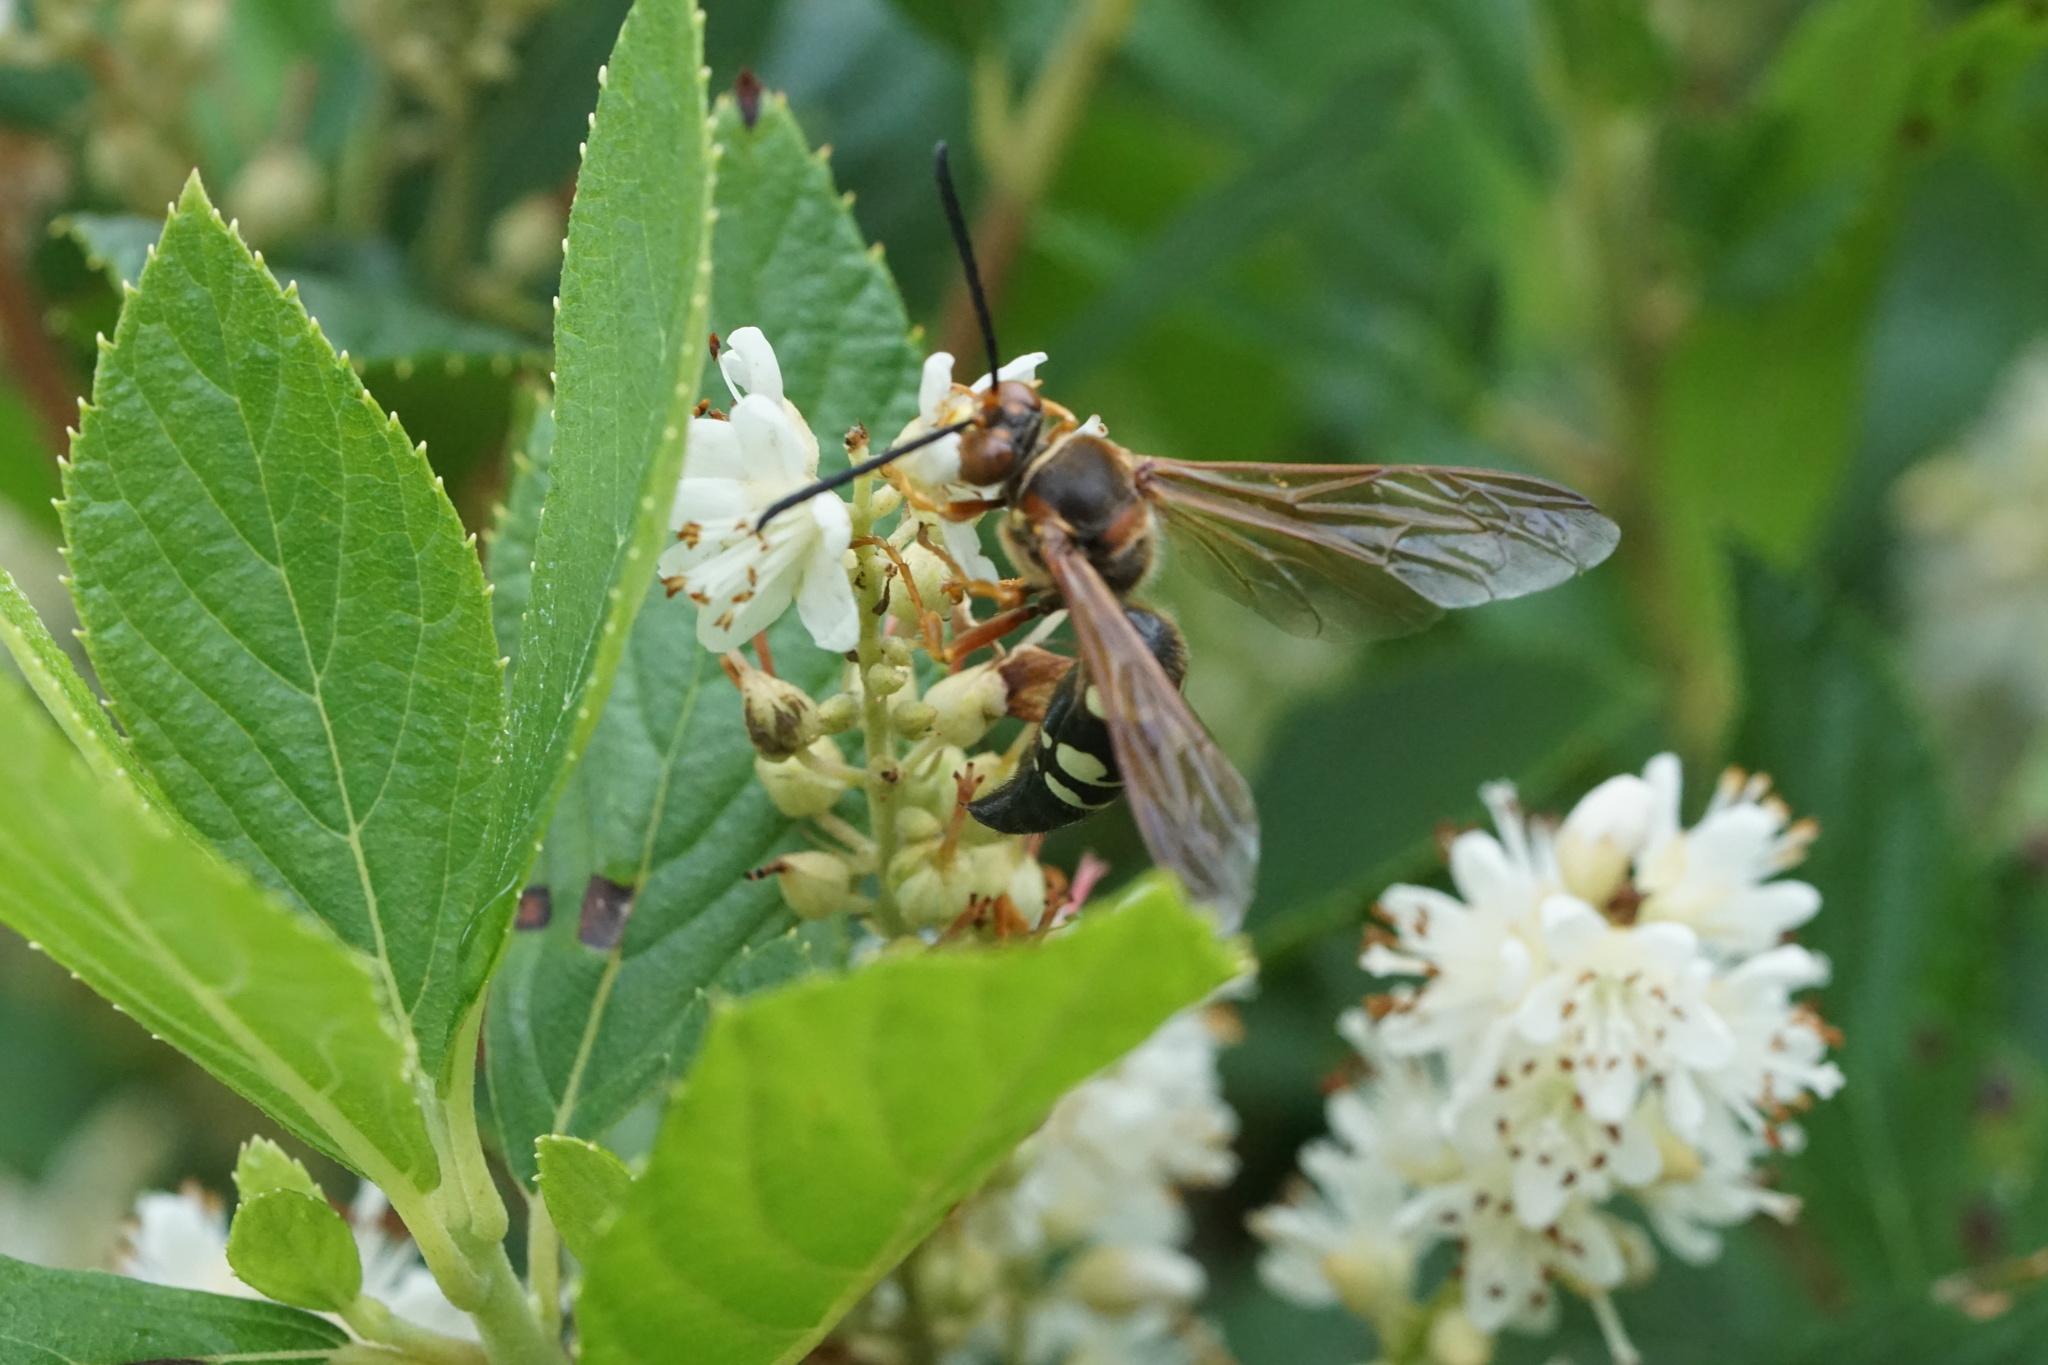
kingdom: Animalia
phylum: Arthropoda
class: Insecta
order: Hymenoptera
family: Crabronidae
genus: Sphecius
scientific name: Sphecius speciosus
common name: Cicada killer
